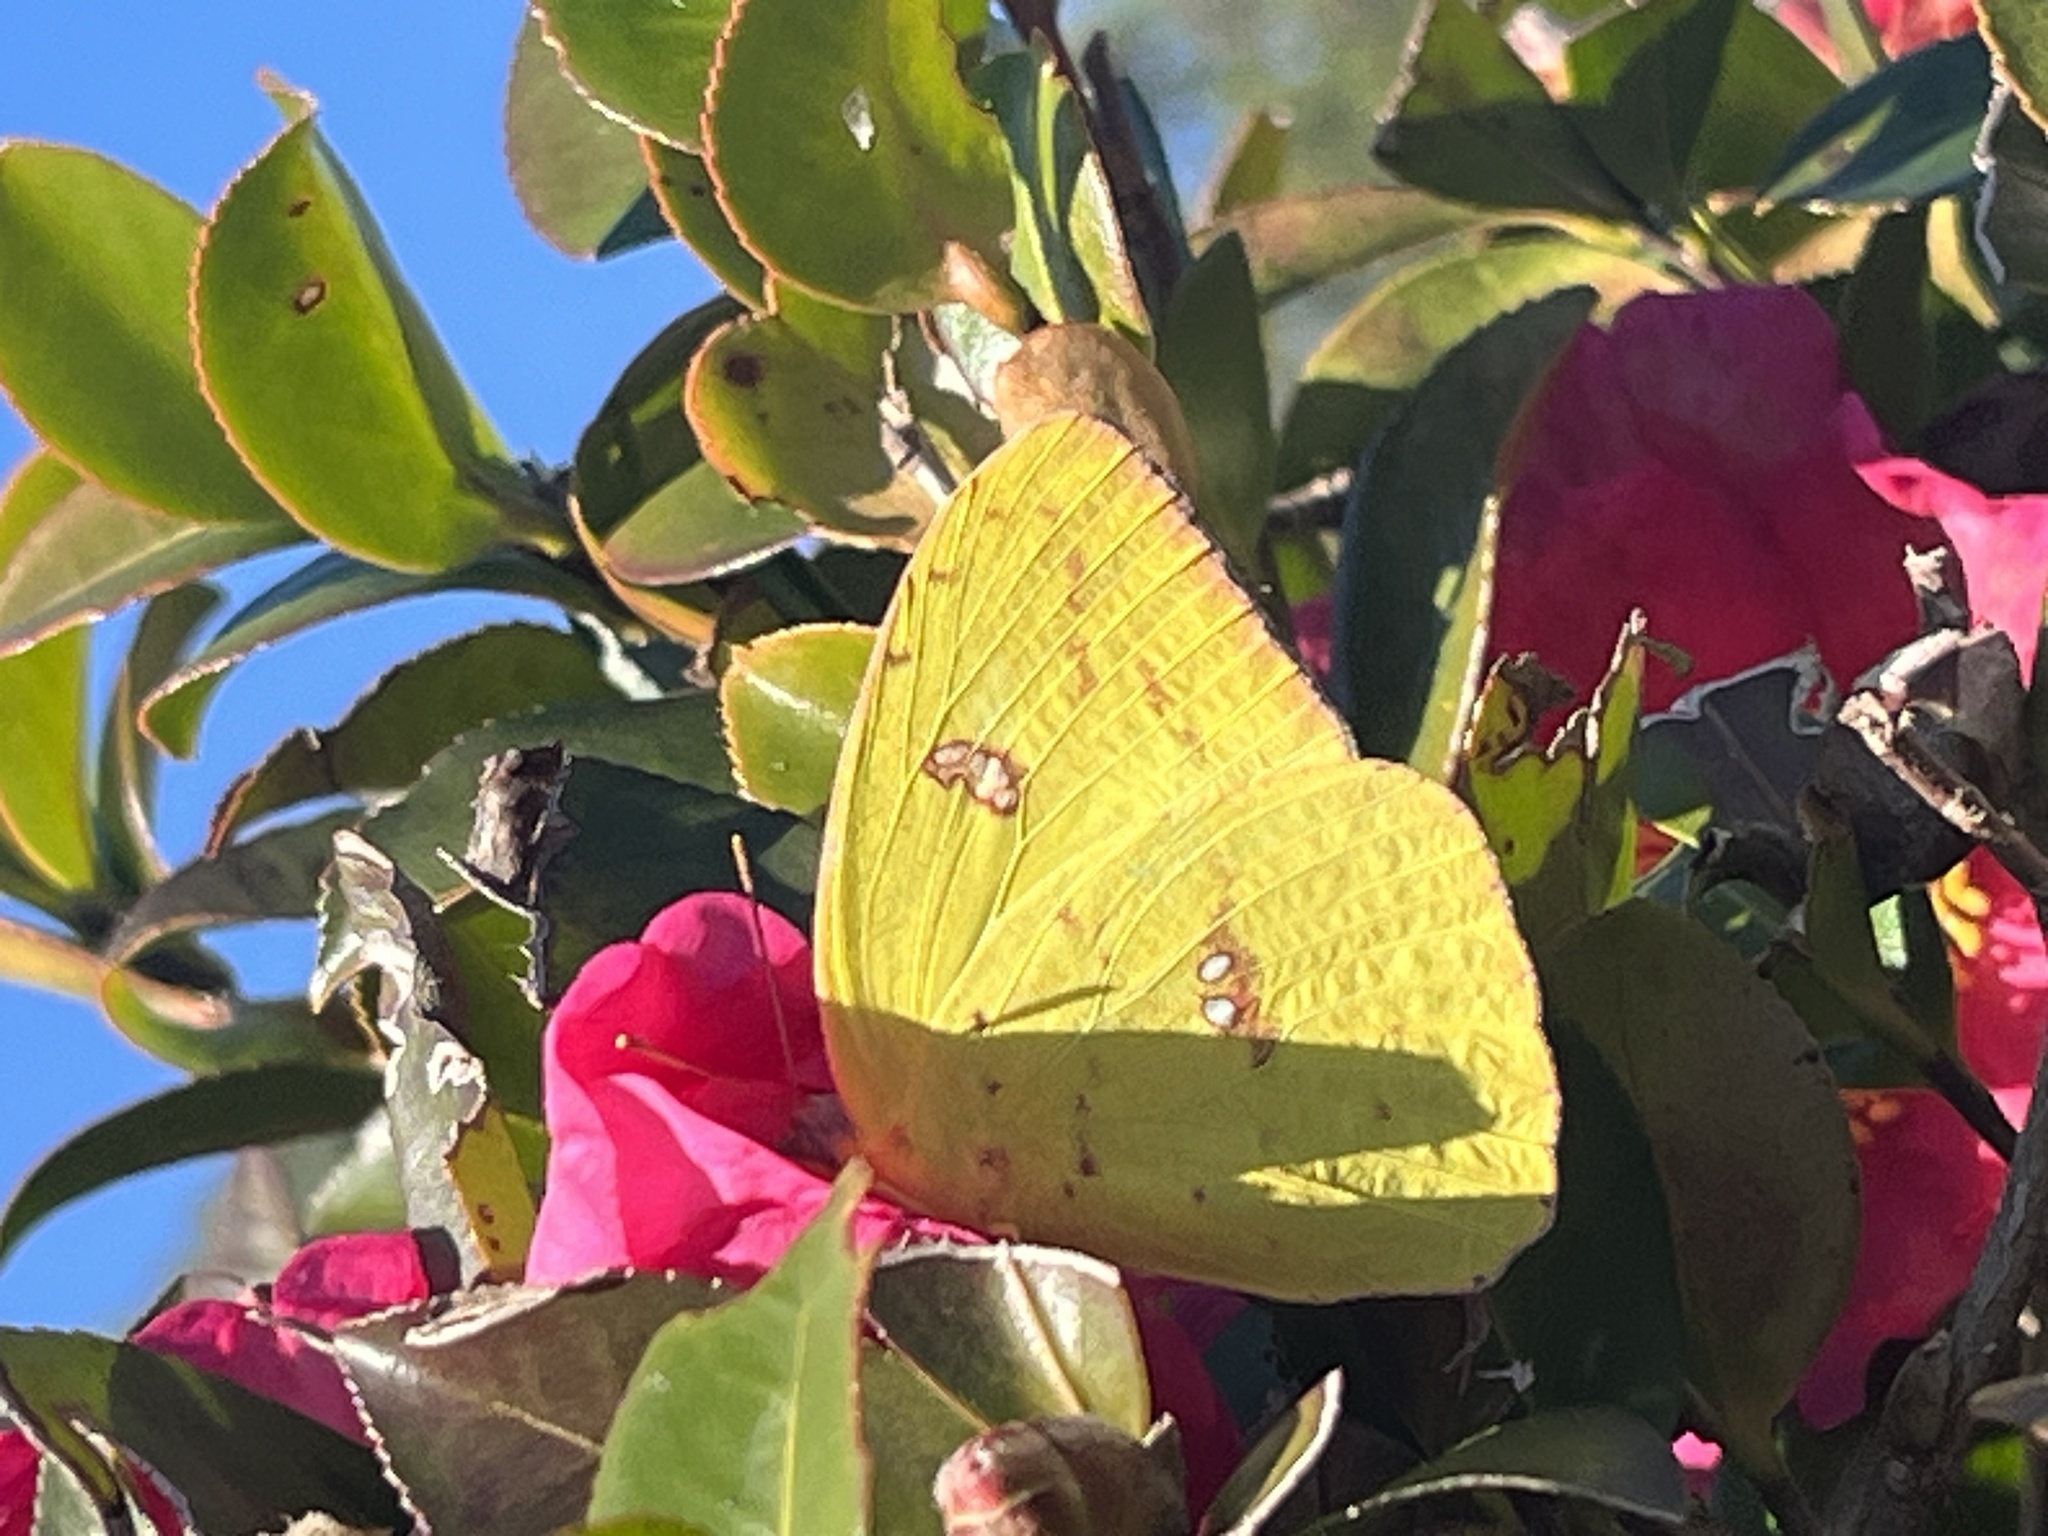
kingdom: Animalia
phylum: Arthropoda
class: Insecta
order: Lepidoptera
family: Pieridae
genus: Phoebis
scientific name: Phoebis sennae
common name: Cloudless sulphur
